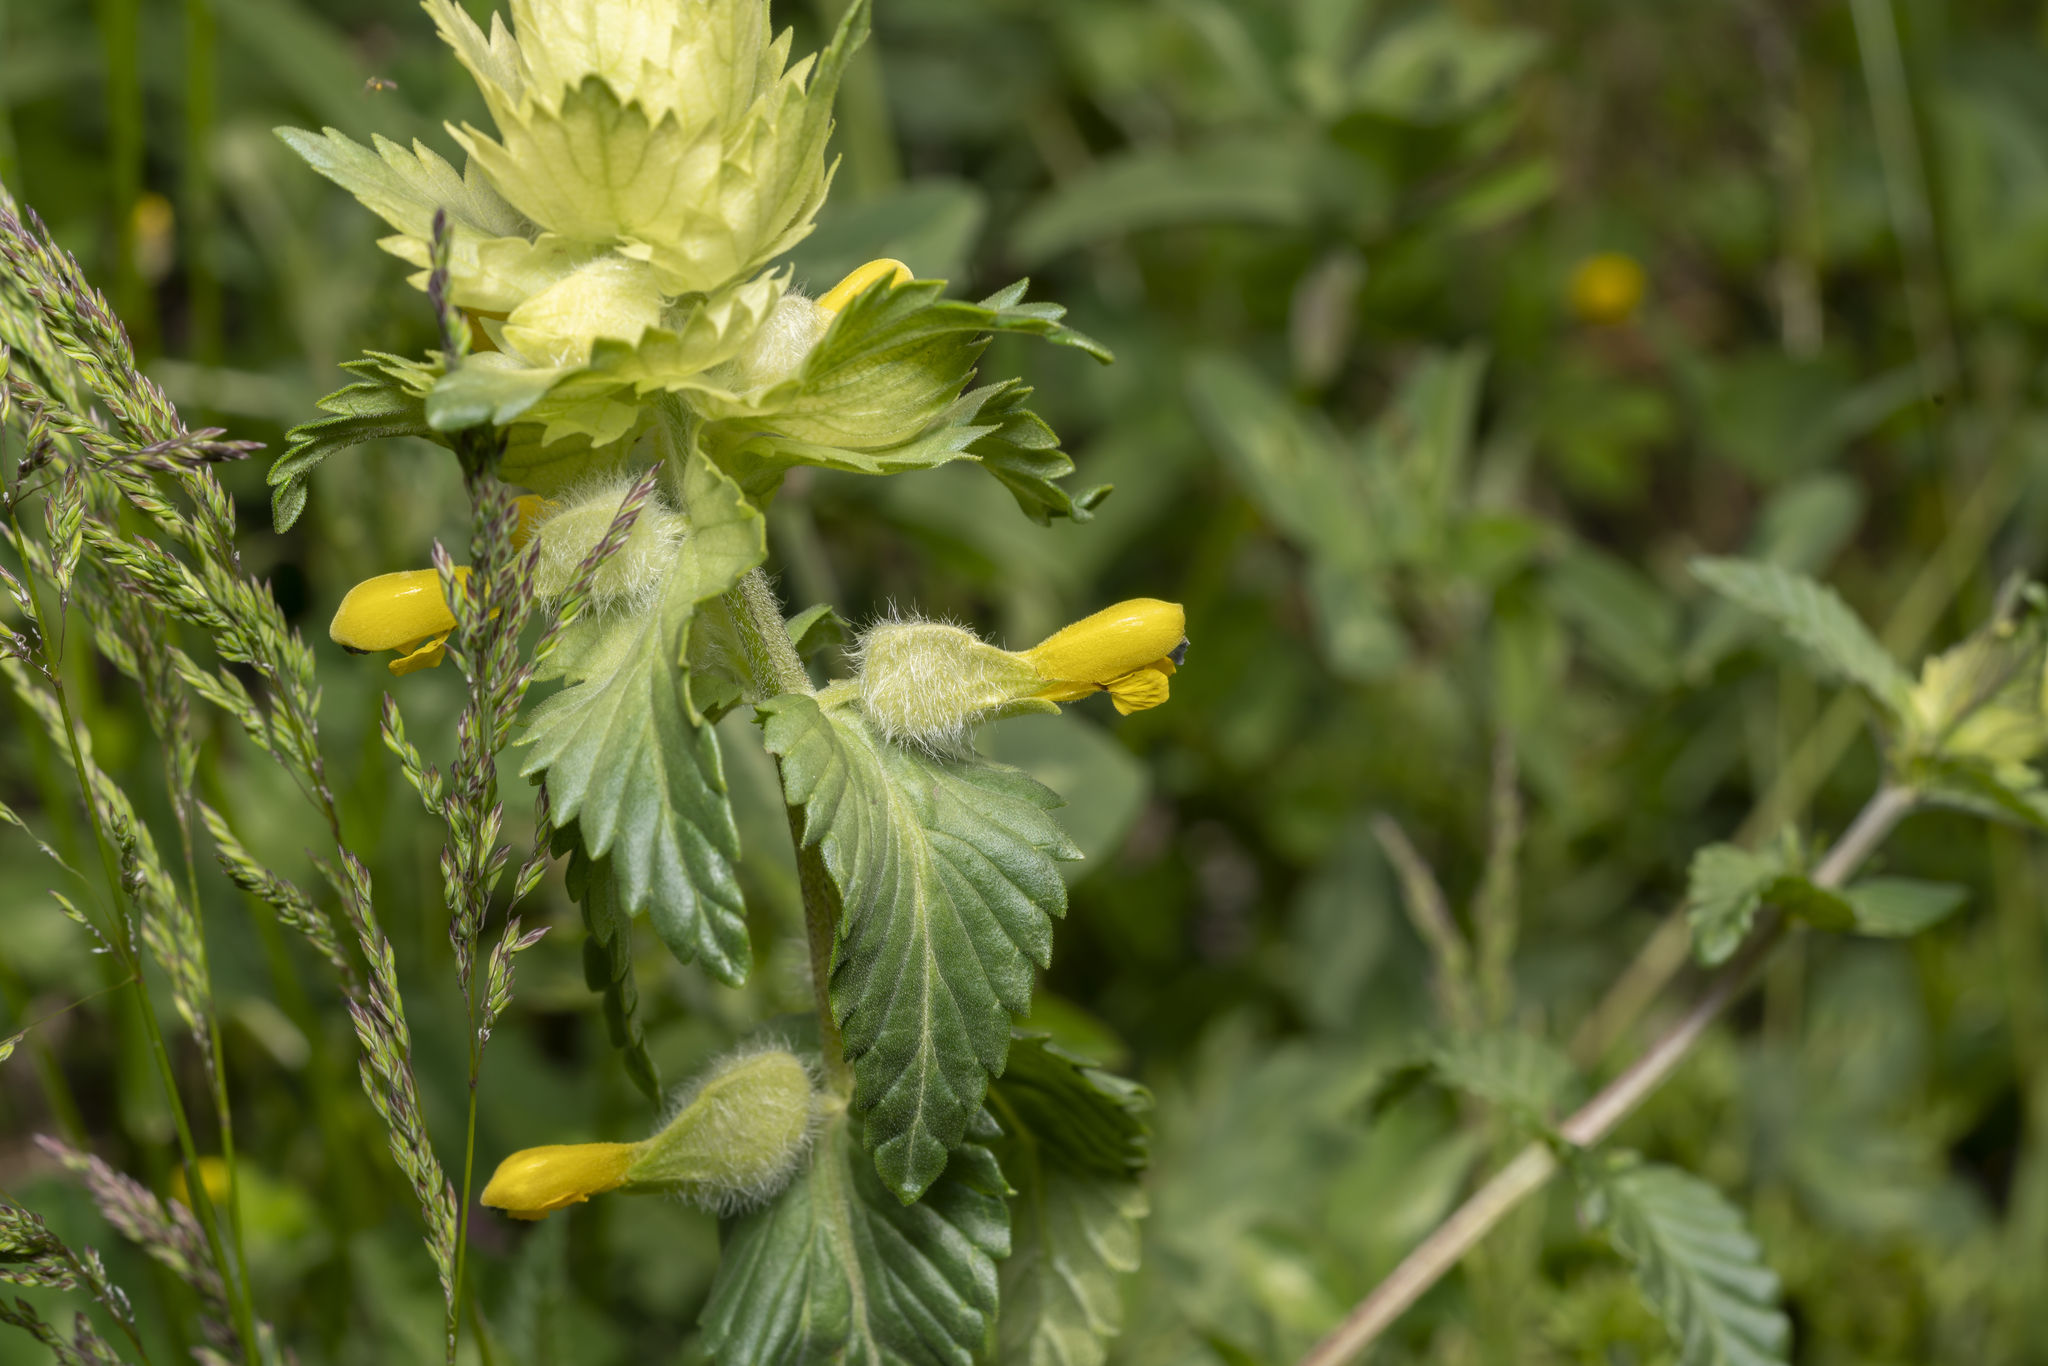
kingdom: Plantae
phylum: Tracheophyta
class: Magnoliopsida
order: Lamiales
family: Orobanchaceae
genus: Rhinanthus
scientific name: Rhinanthus alectorolophus
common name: Greater yellow-rattle
